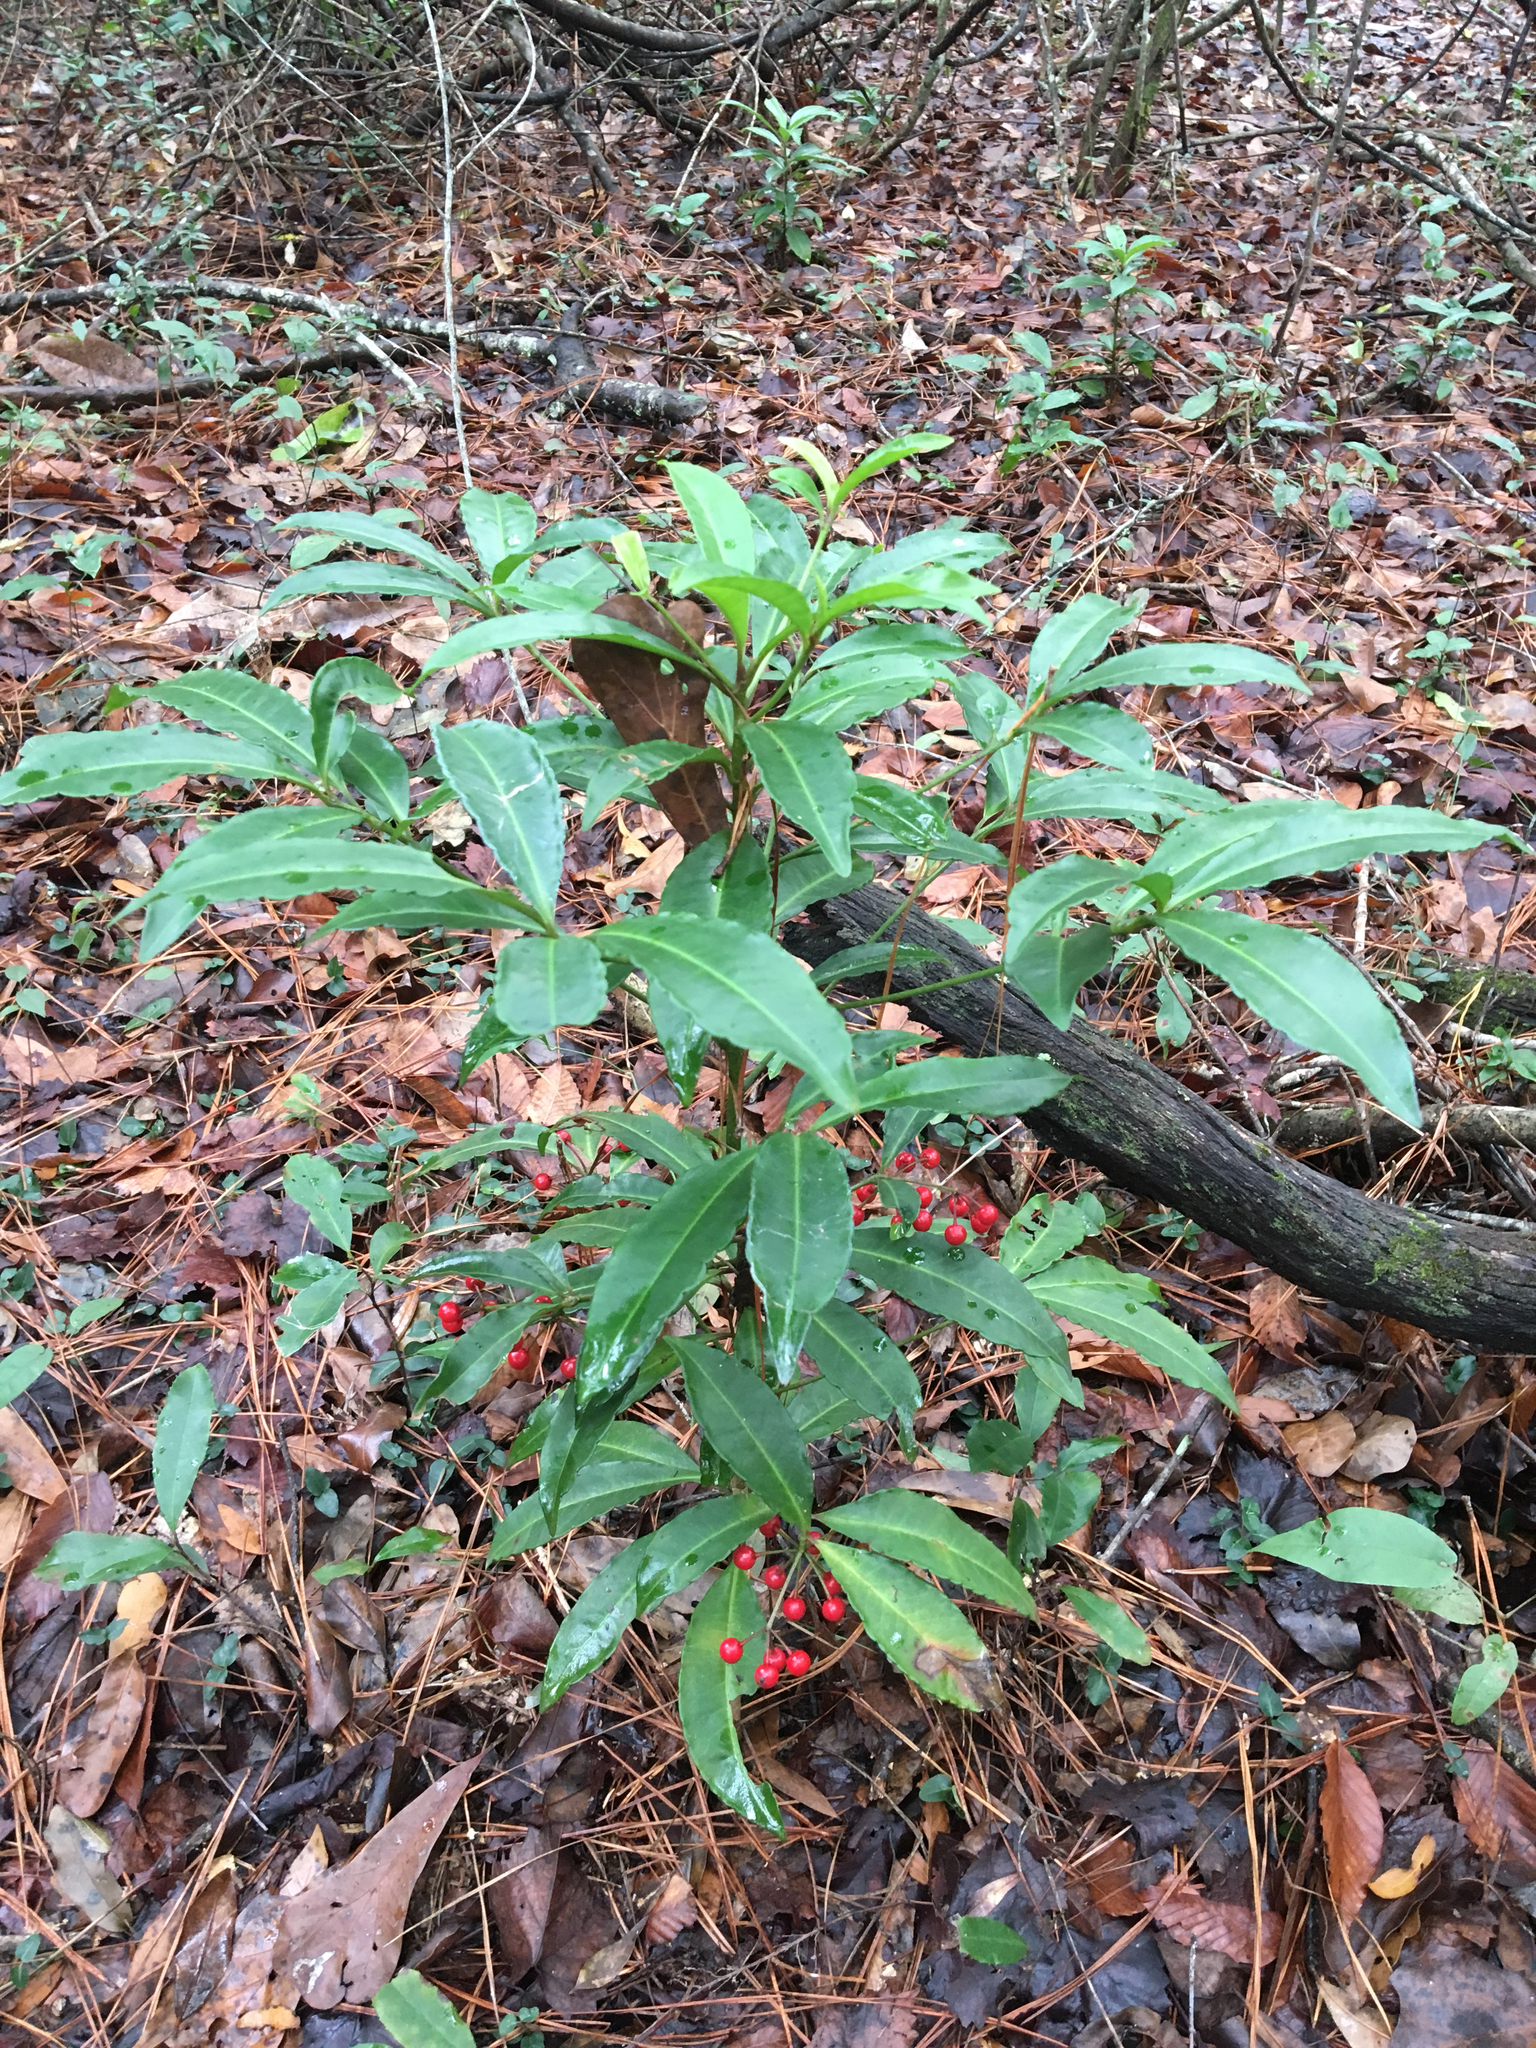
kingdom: Plantae
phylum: Tracheophyta
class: Magnoliopsida
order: Ericales
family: Primulaceae
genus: Ardisia
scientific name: Ardisia crenata
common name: Hen's eyes
